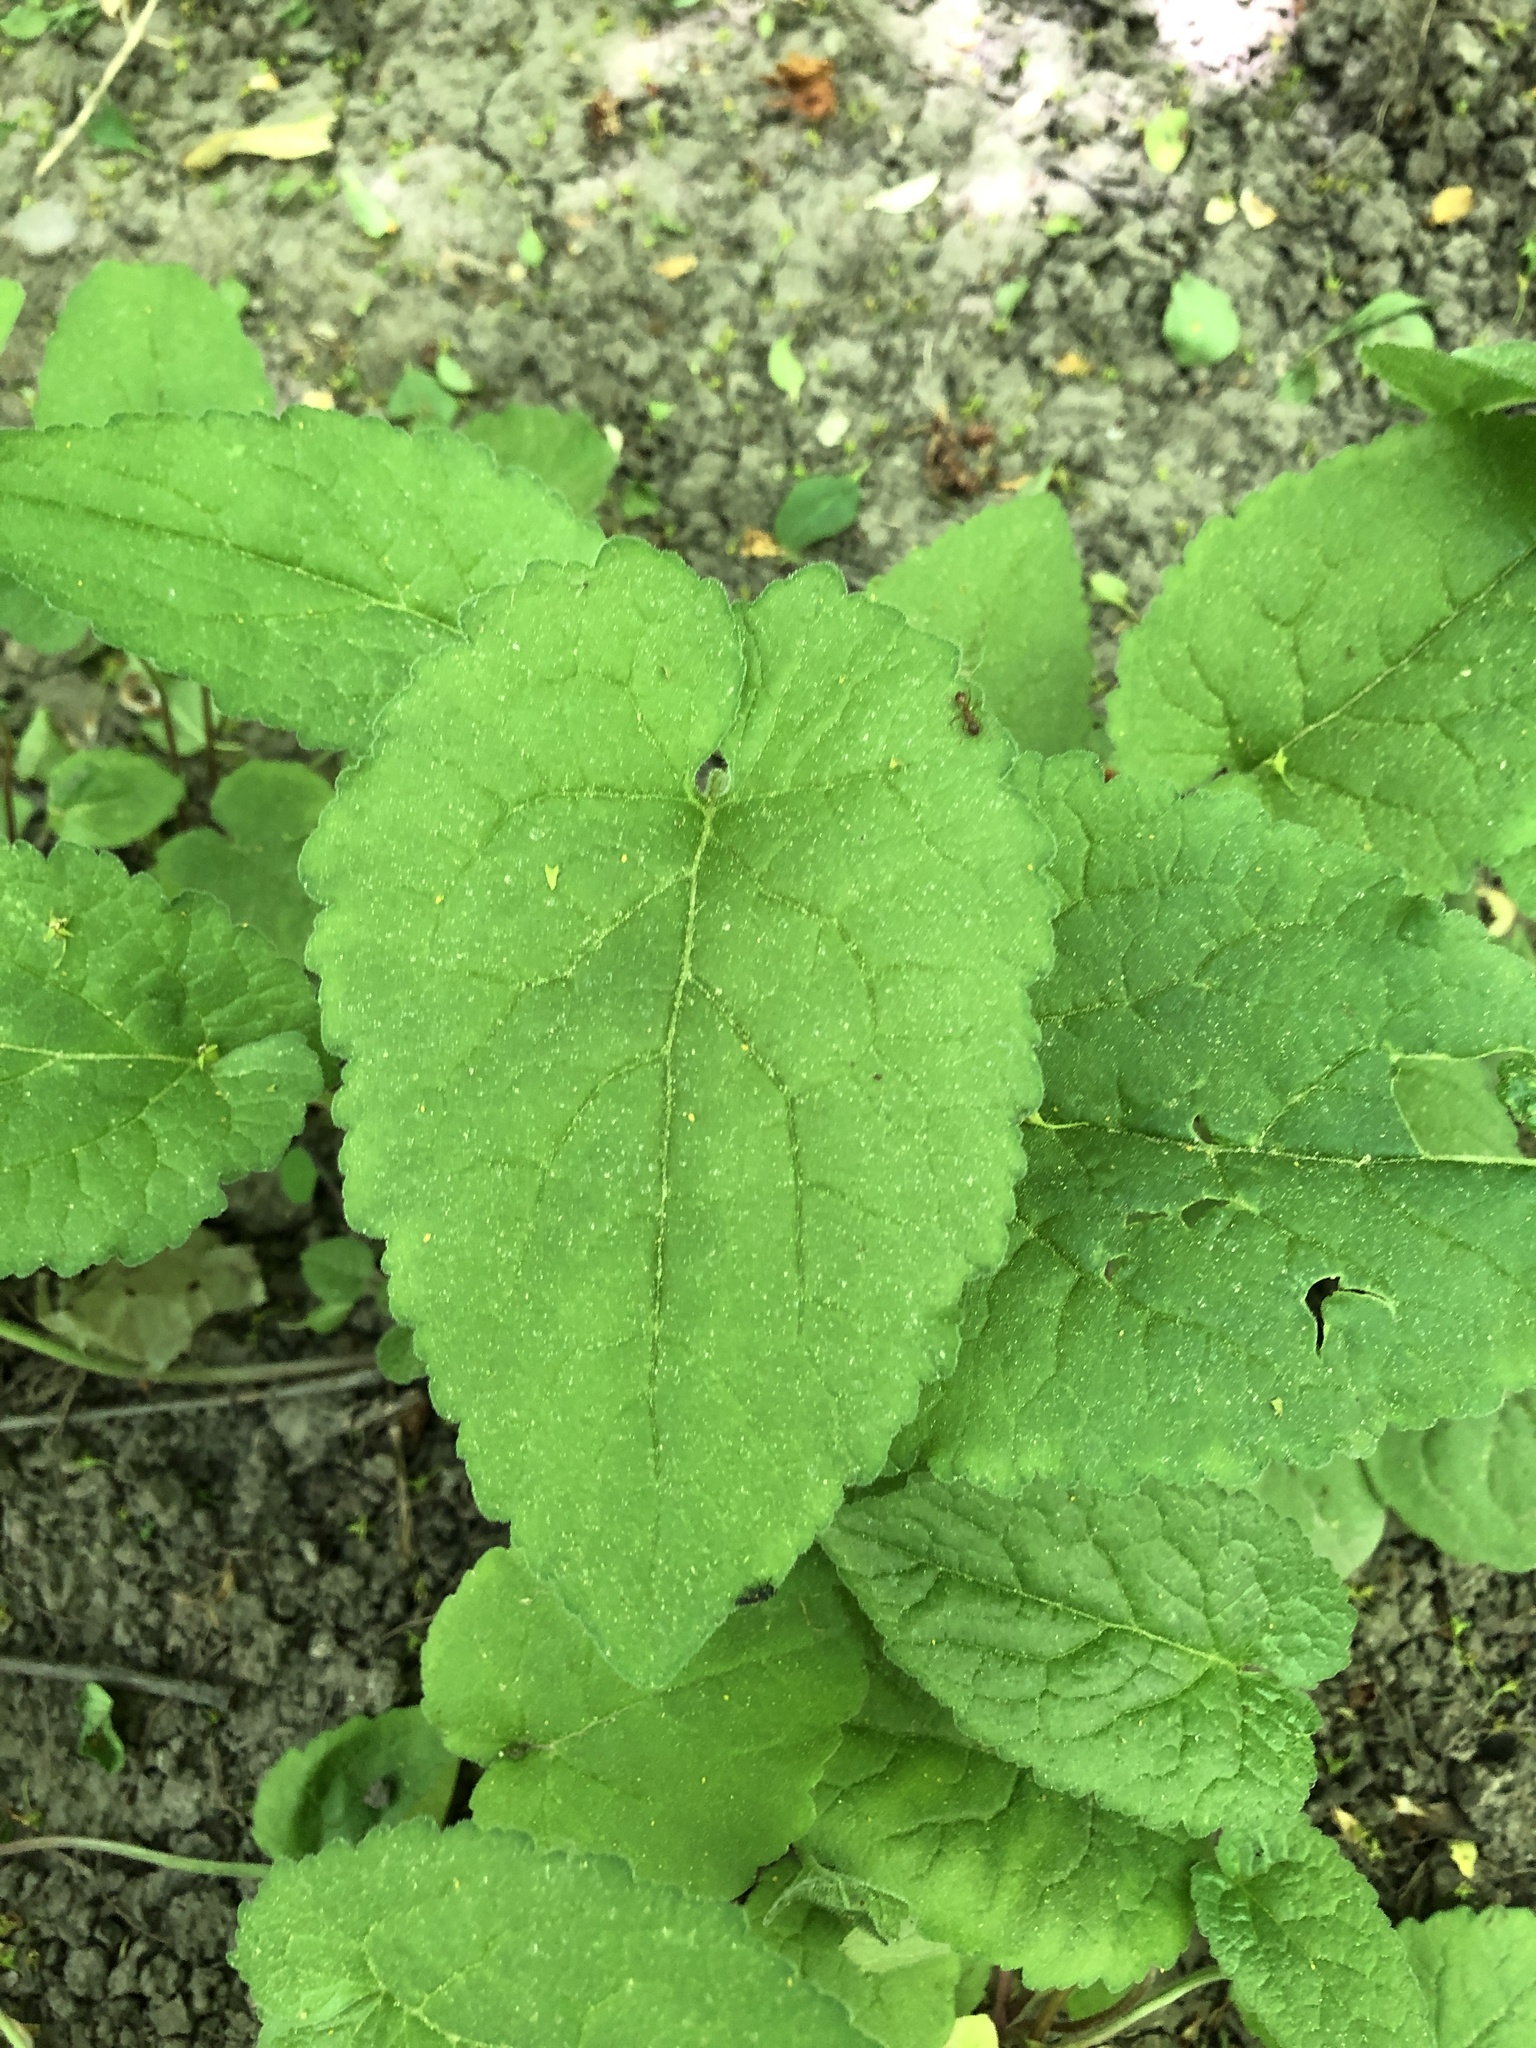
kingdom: Plantae
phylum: Tracheophyta
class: Magnoliopsida
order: Asterales
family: Campanulaceae
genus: Campanula
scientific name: Campanula rapunculoides
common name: Creeping bellflower
